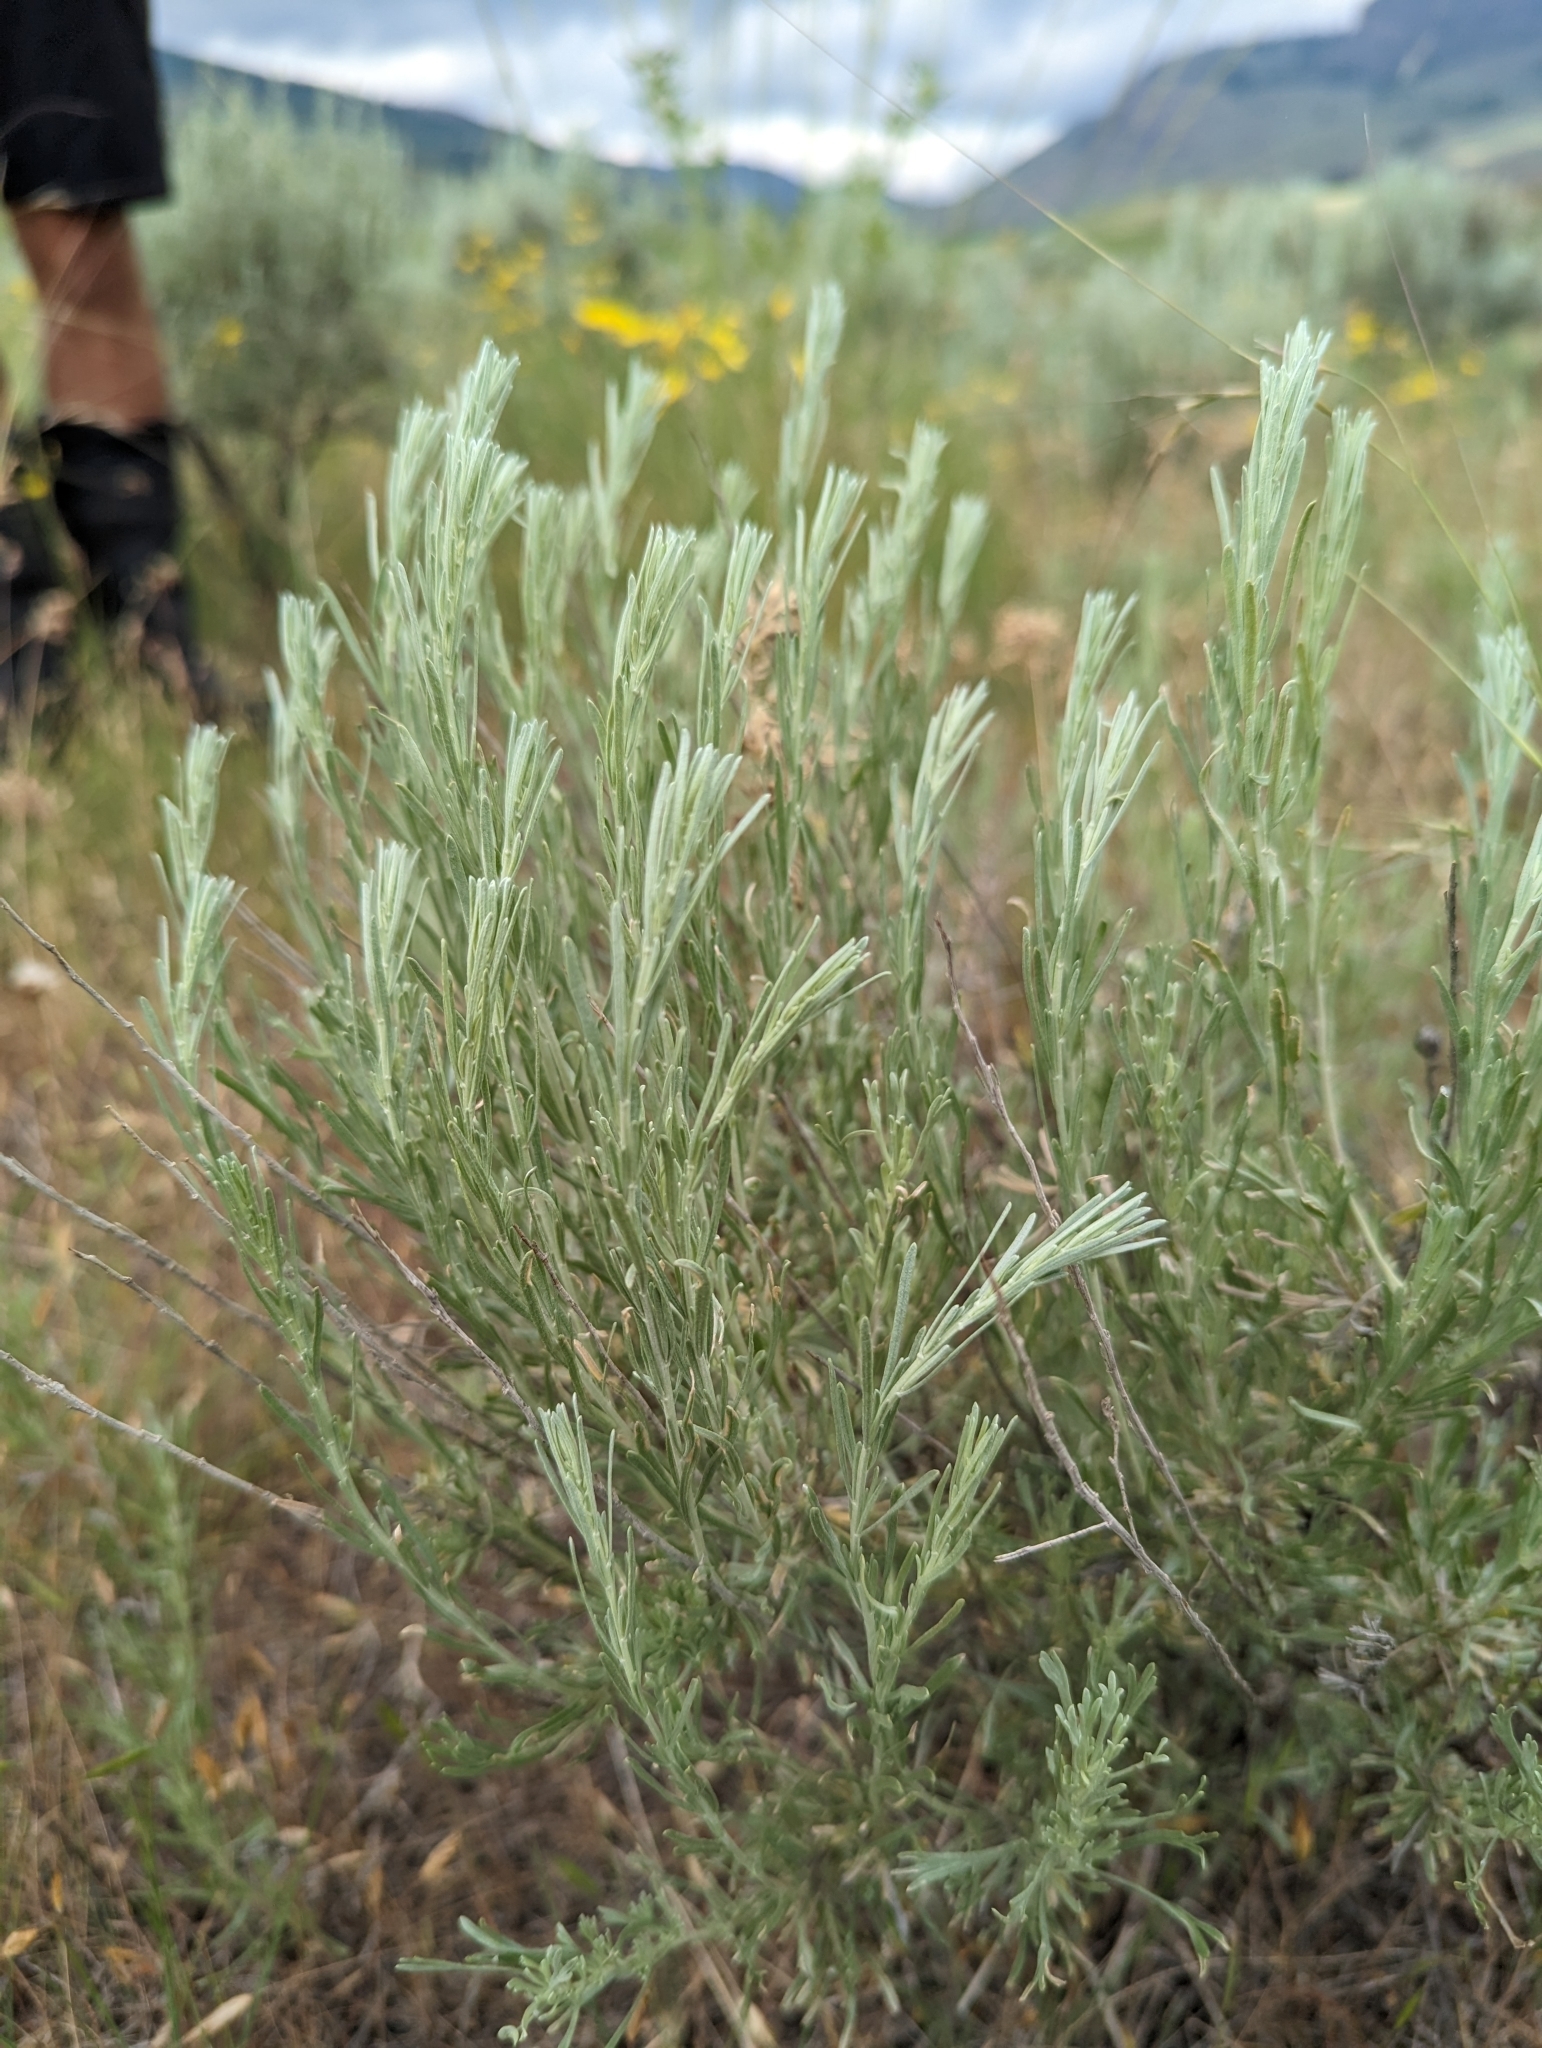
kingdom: Plantae
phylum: Tracheophyta
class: Magnoliopsida
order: Asterales
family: Asteraceae
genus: Artemisia
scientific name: Artemisia tripartita
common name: Three-tip sagebrush
